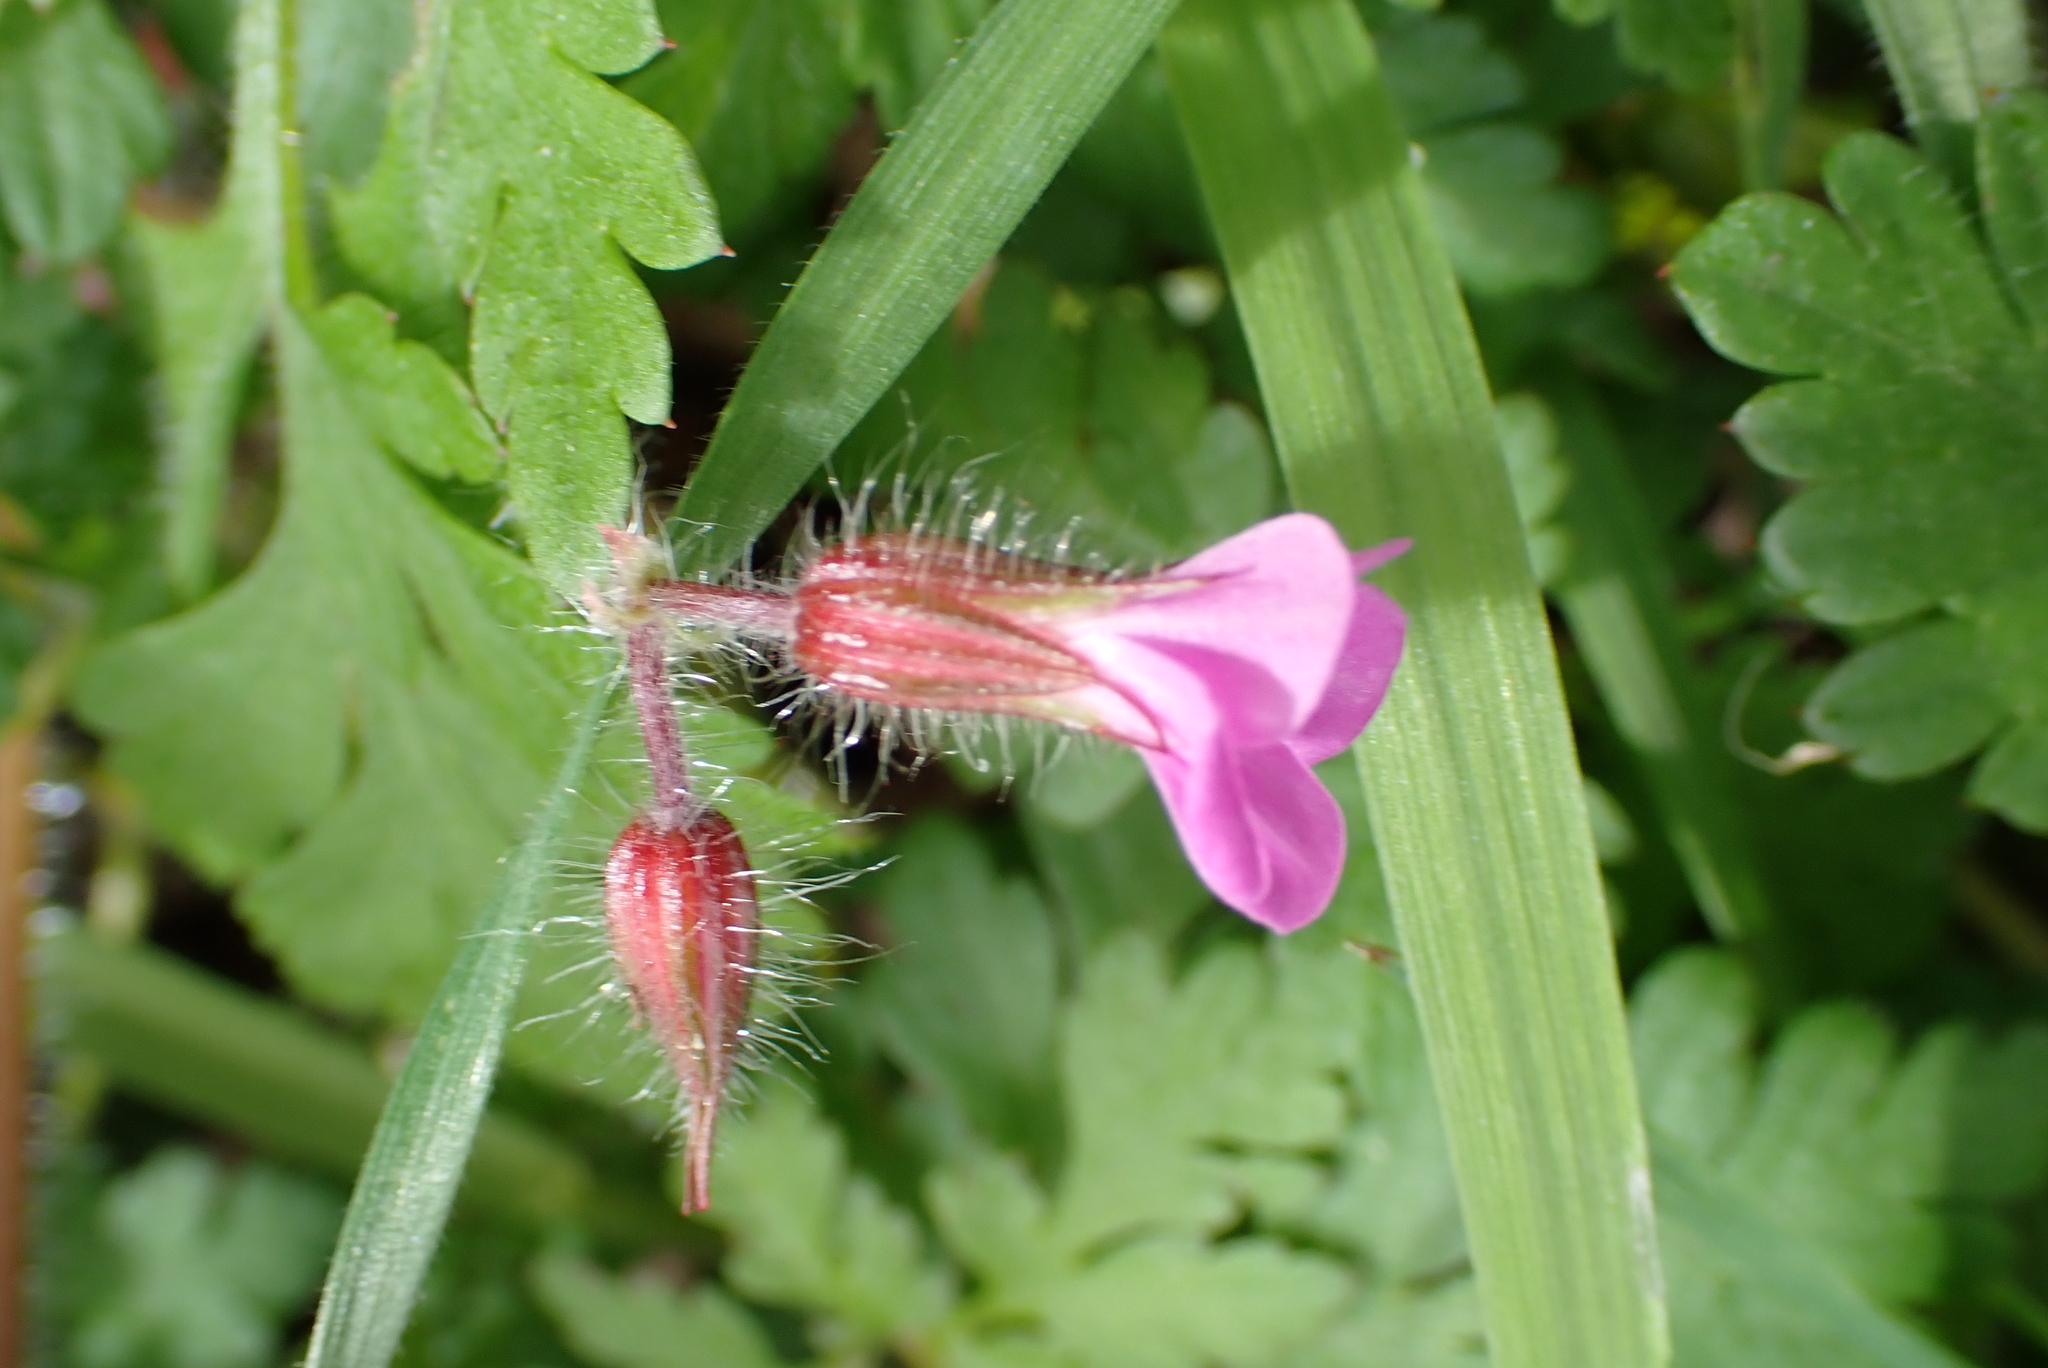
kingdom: Plantae
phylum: Tracheophyta
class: Magnoliopsida
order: Geraniales
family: Geraniaceae
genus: Geranium
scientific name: Geranium robertianum
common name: Herb-robert
